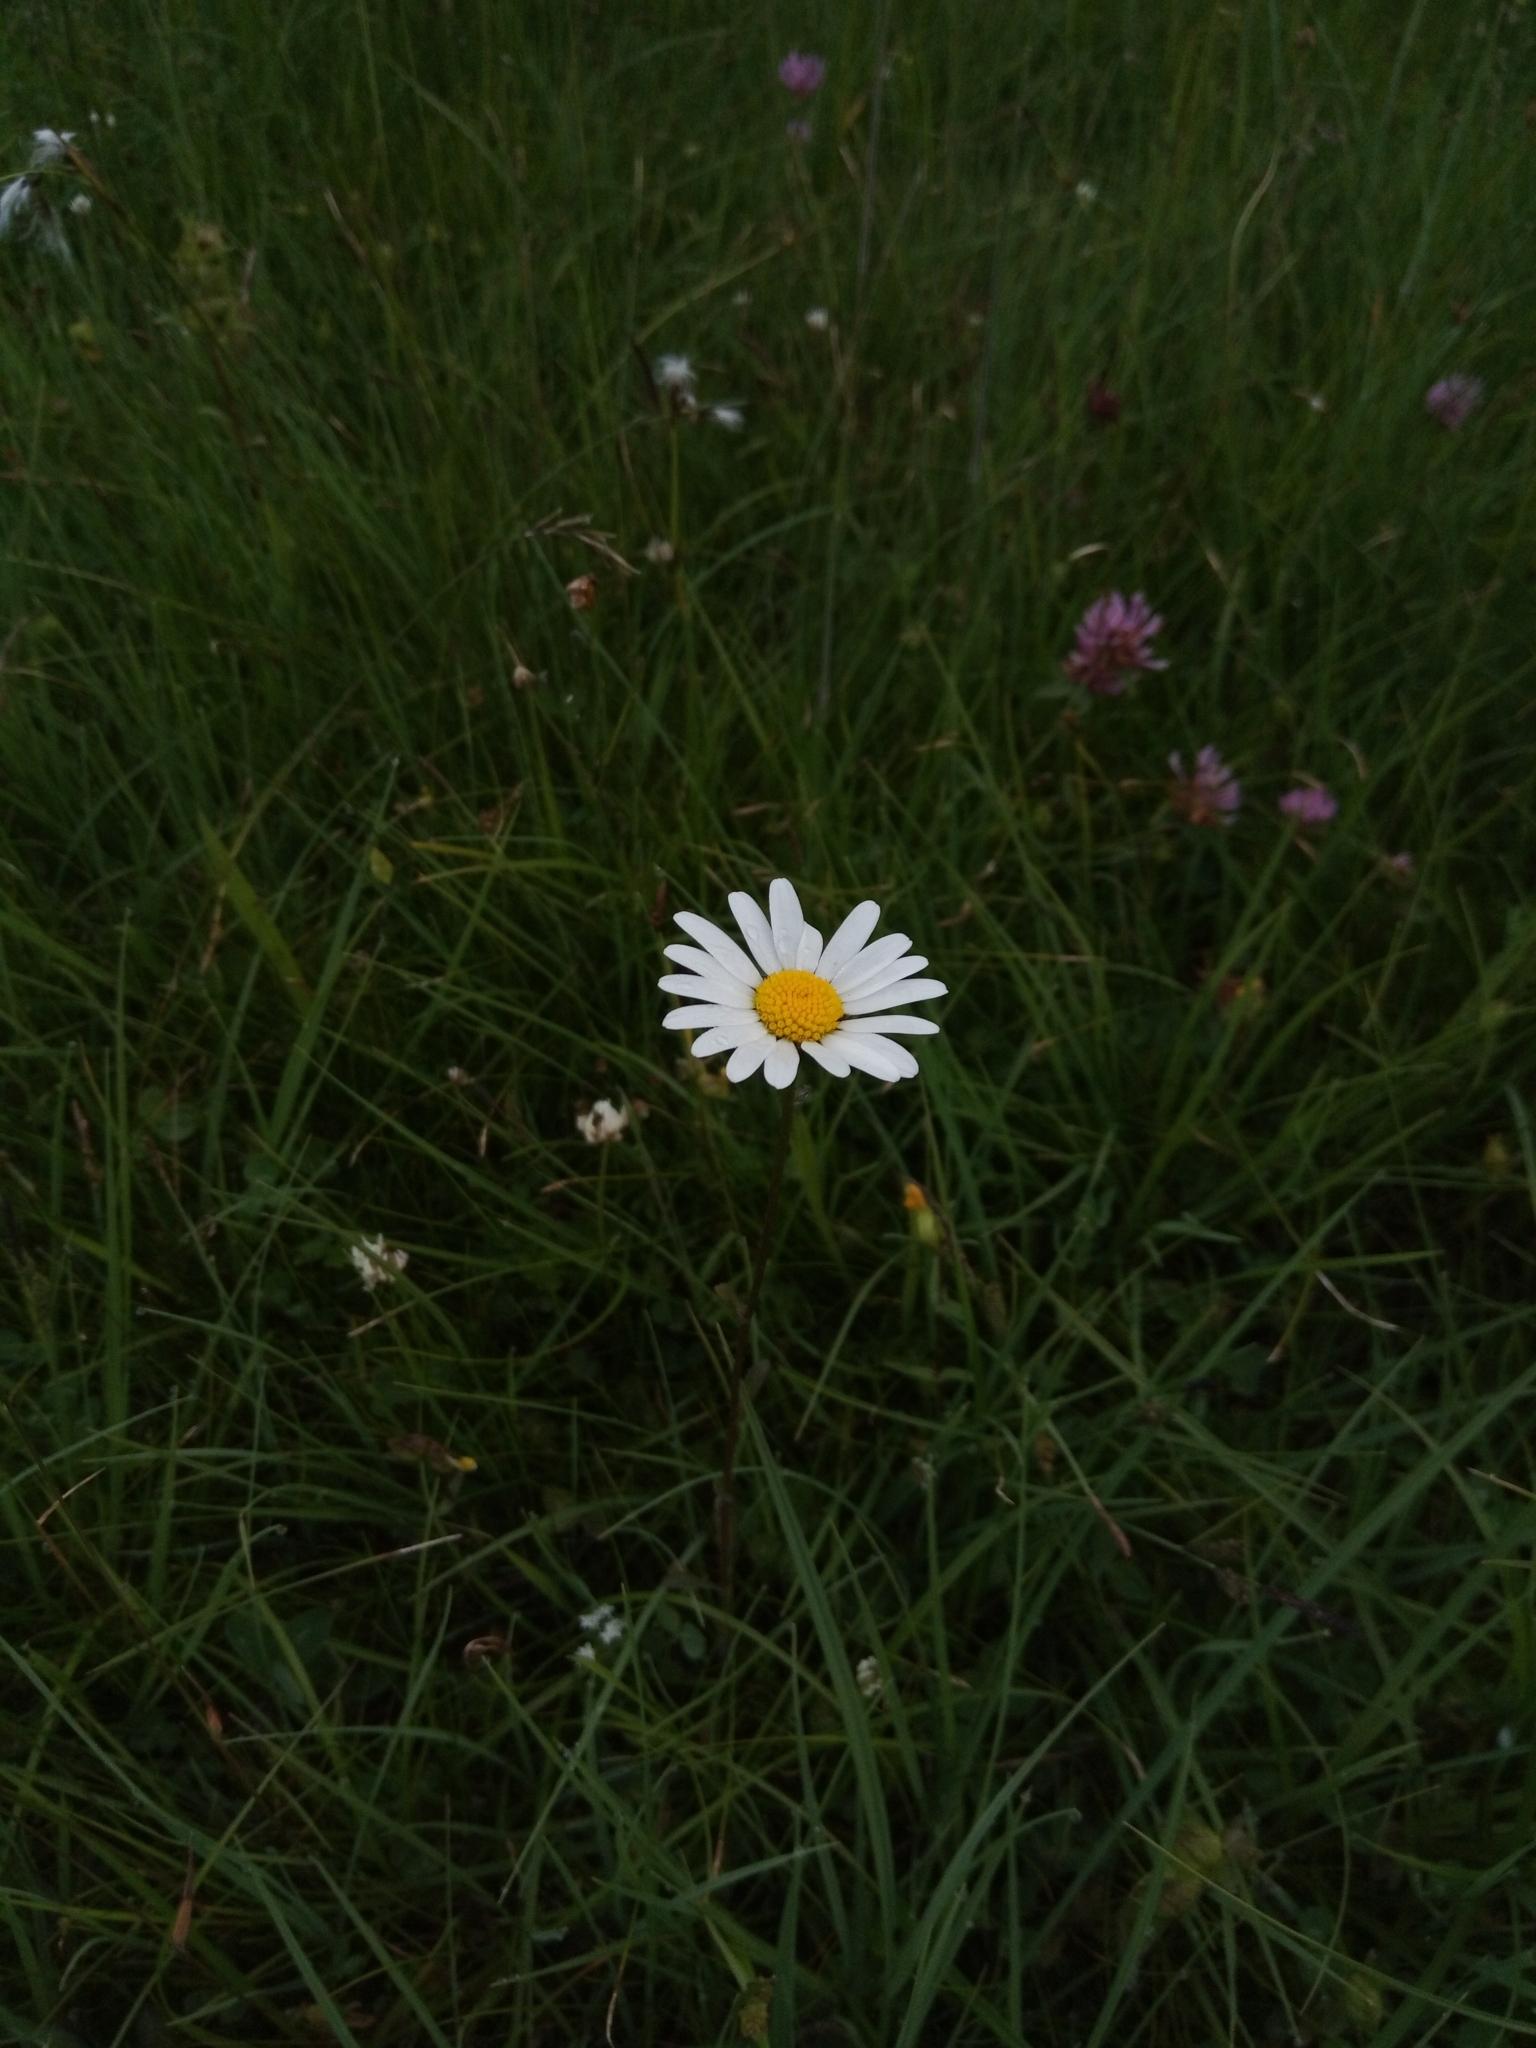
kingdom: Plantae
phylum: Tracheophyta
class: Magnoliopsida
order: Asterales
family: Asteraceae
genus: Leucanthemum
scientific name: Leucanthemum vulgare
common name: Oxeye daisy
